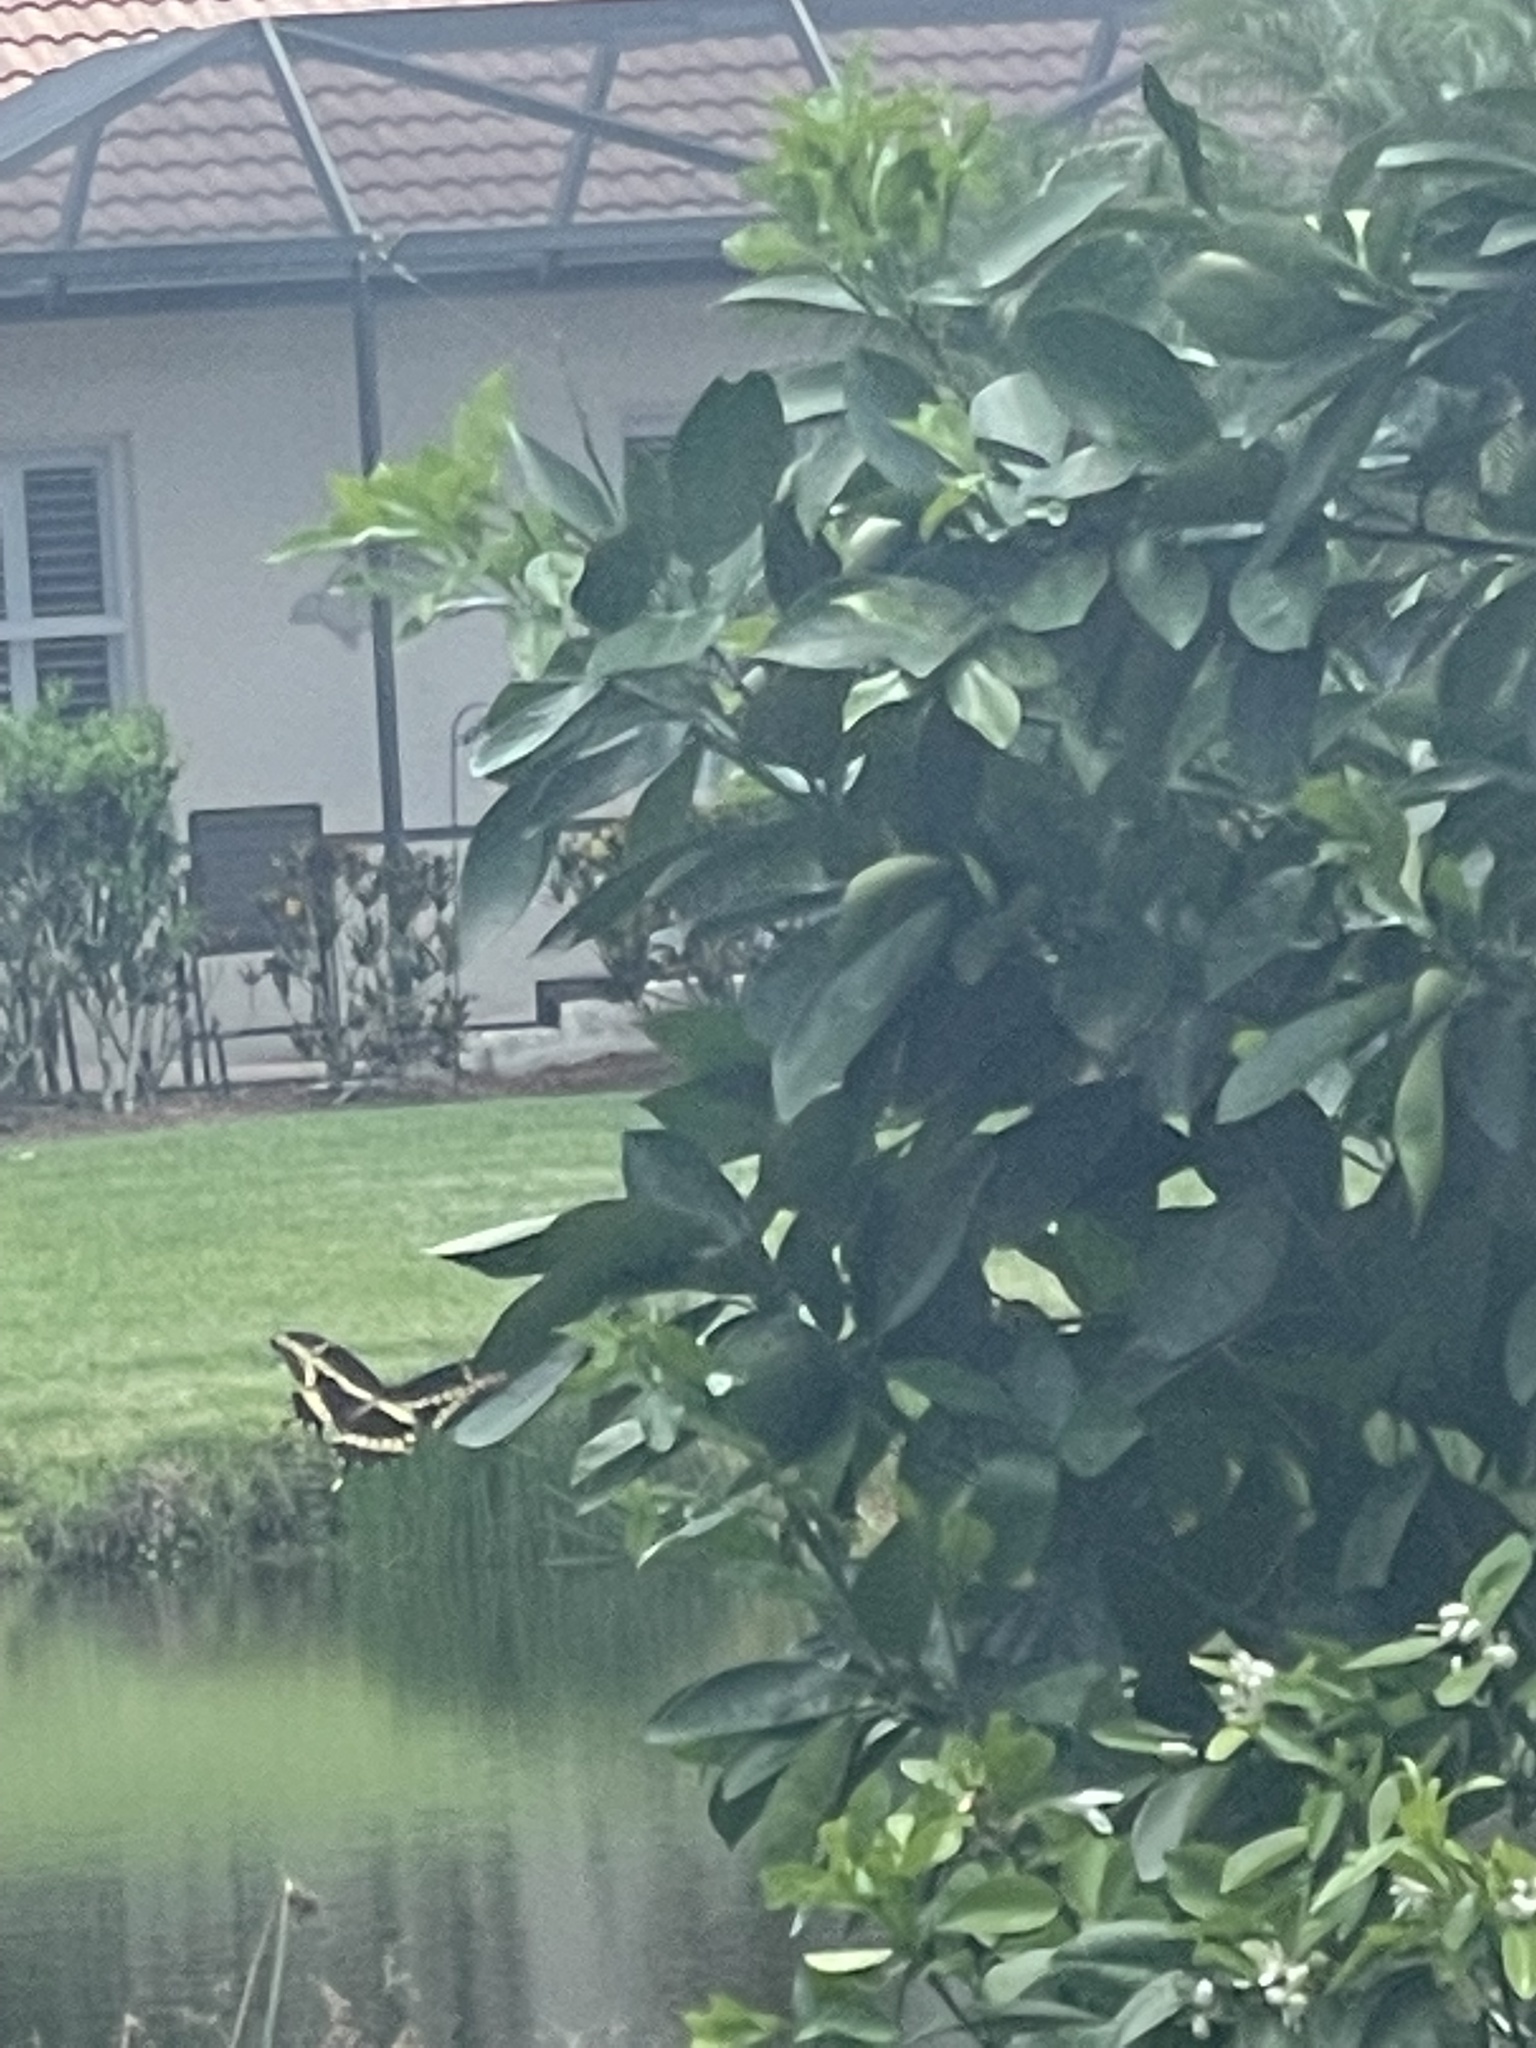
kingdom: Animalia
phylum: Arthropoda
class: Insecta
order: Lepidoptera
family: Papilionidae
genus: Papilio
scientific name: Papilio cresphontes
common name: Giant swallowtail
